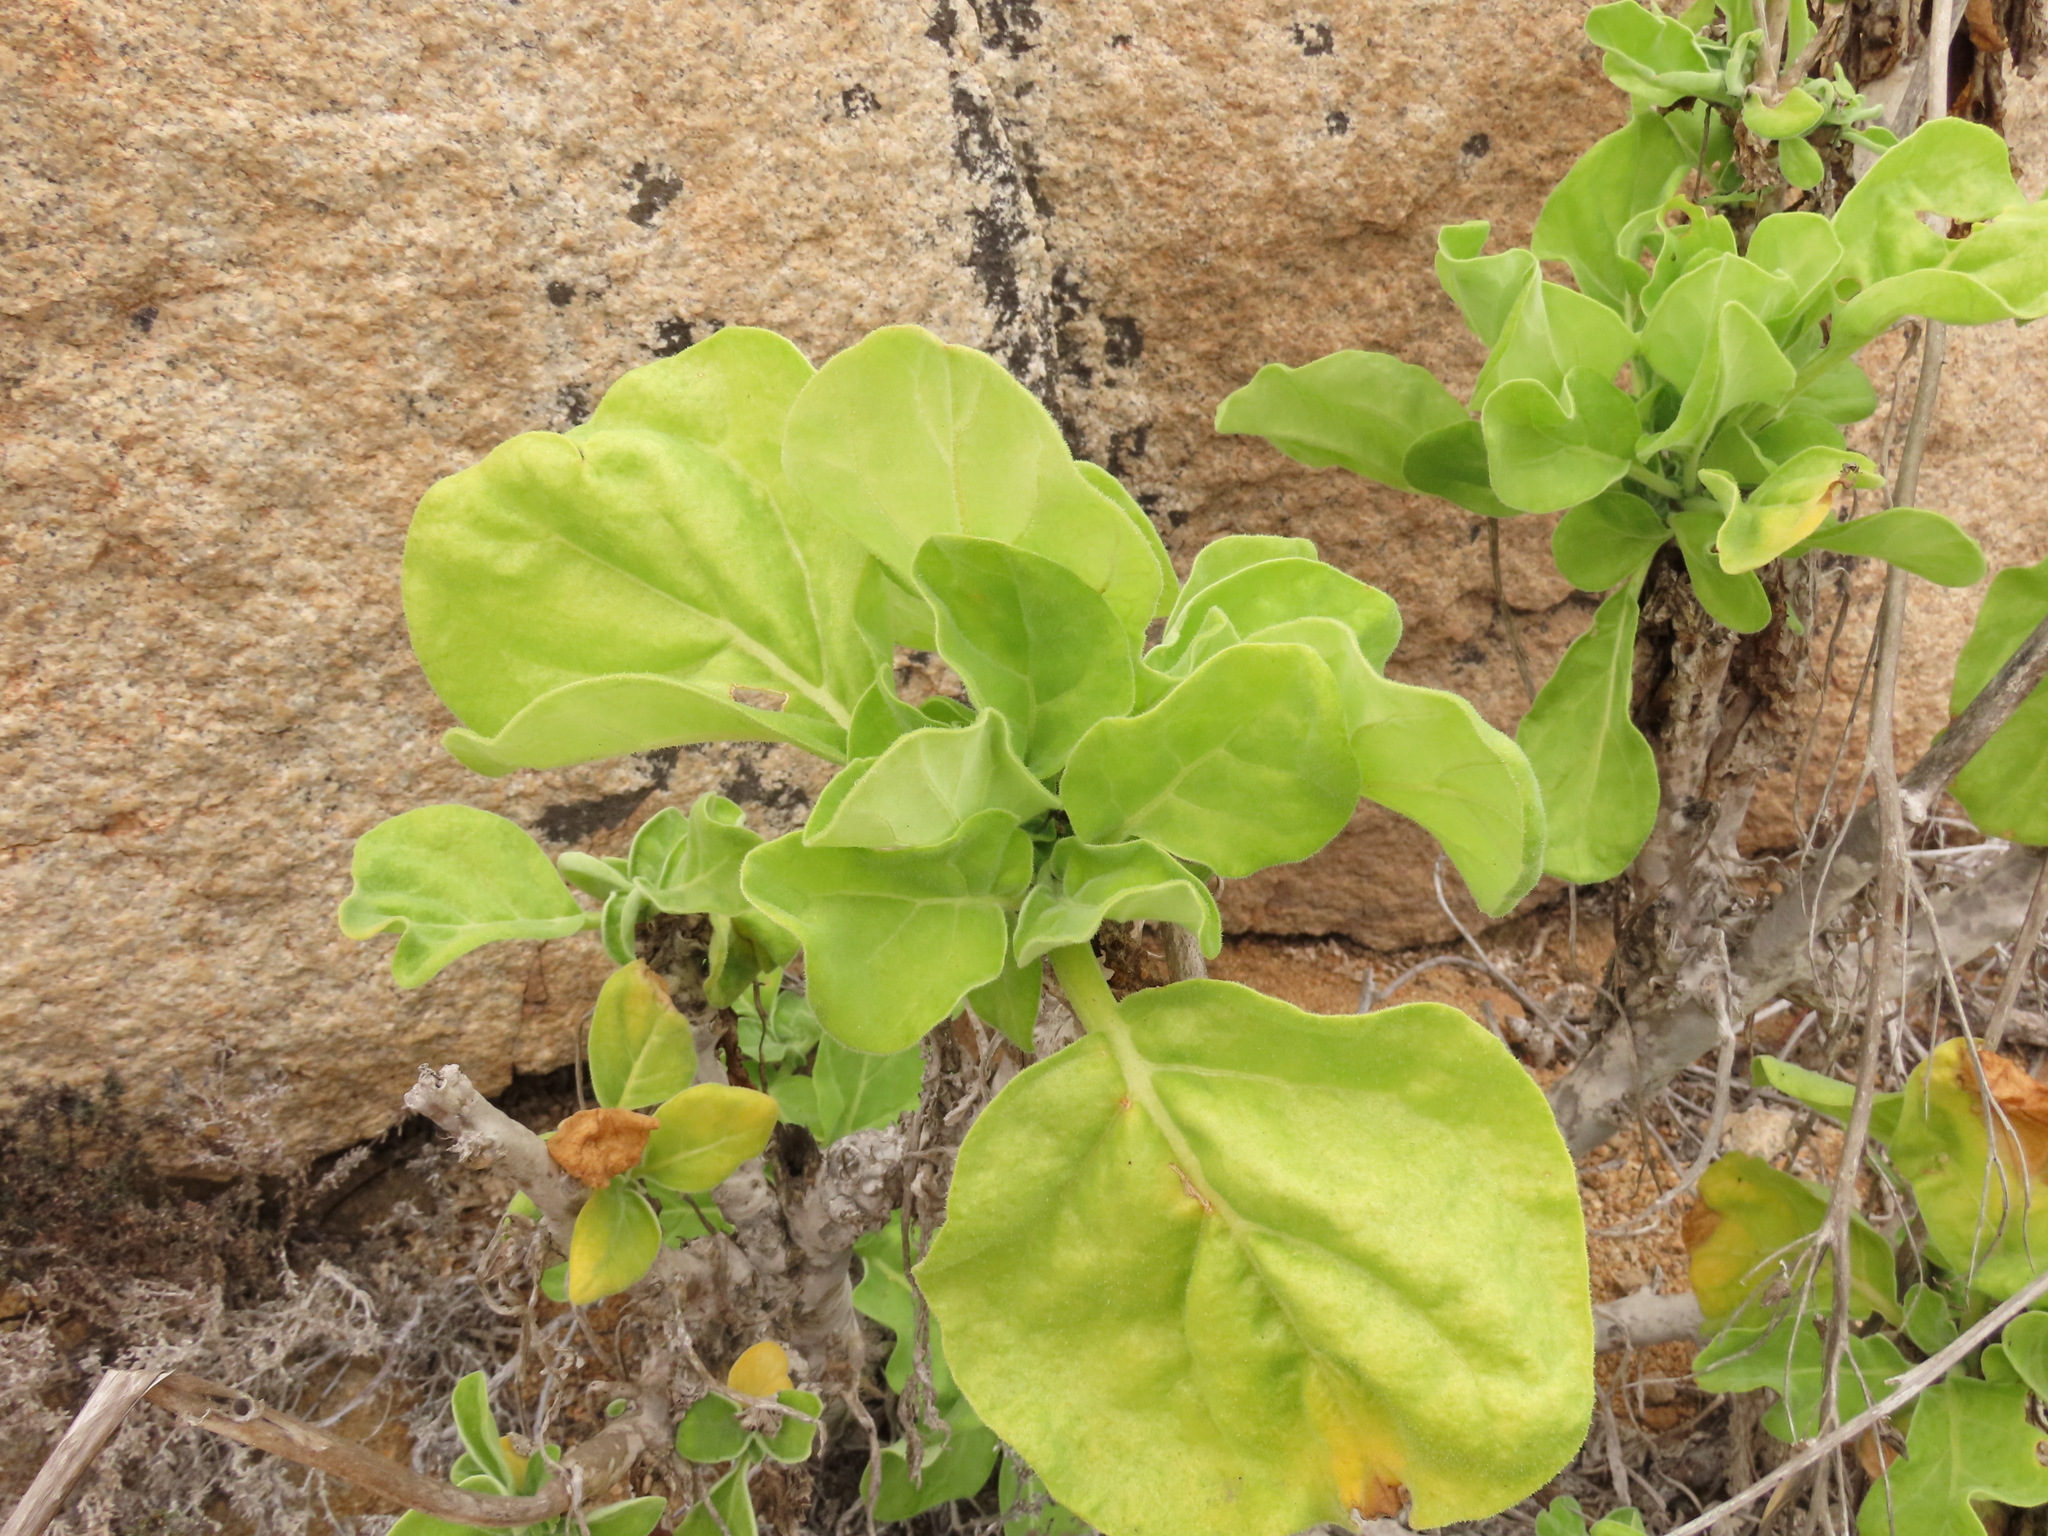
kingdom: Plantae
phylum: Tracheophyta
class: Magnoliopsida
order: Solanales
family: Solanaceae
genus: Nicotiana
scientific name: Nicotiana solanifolia
